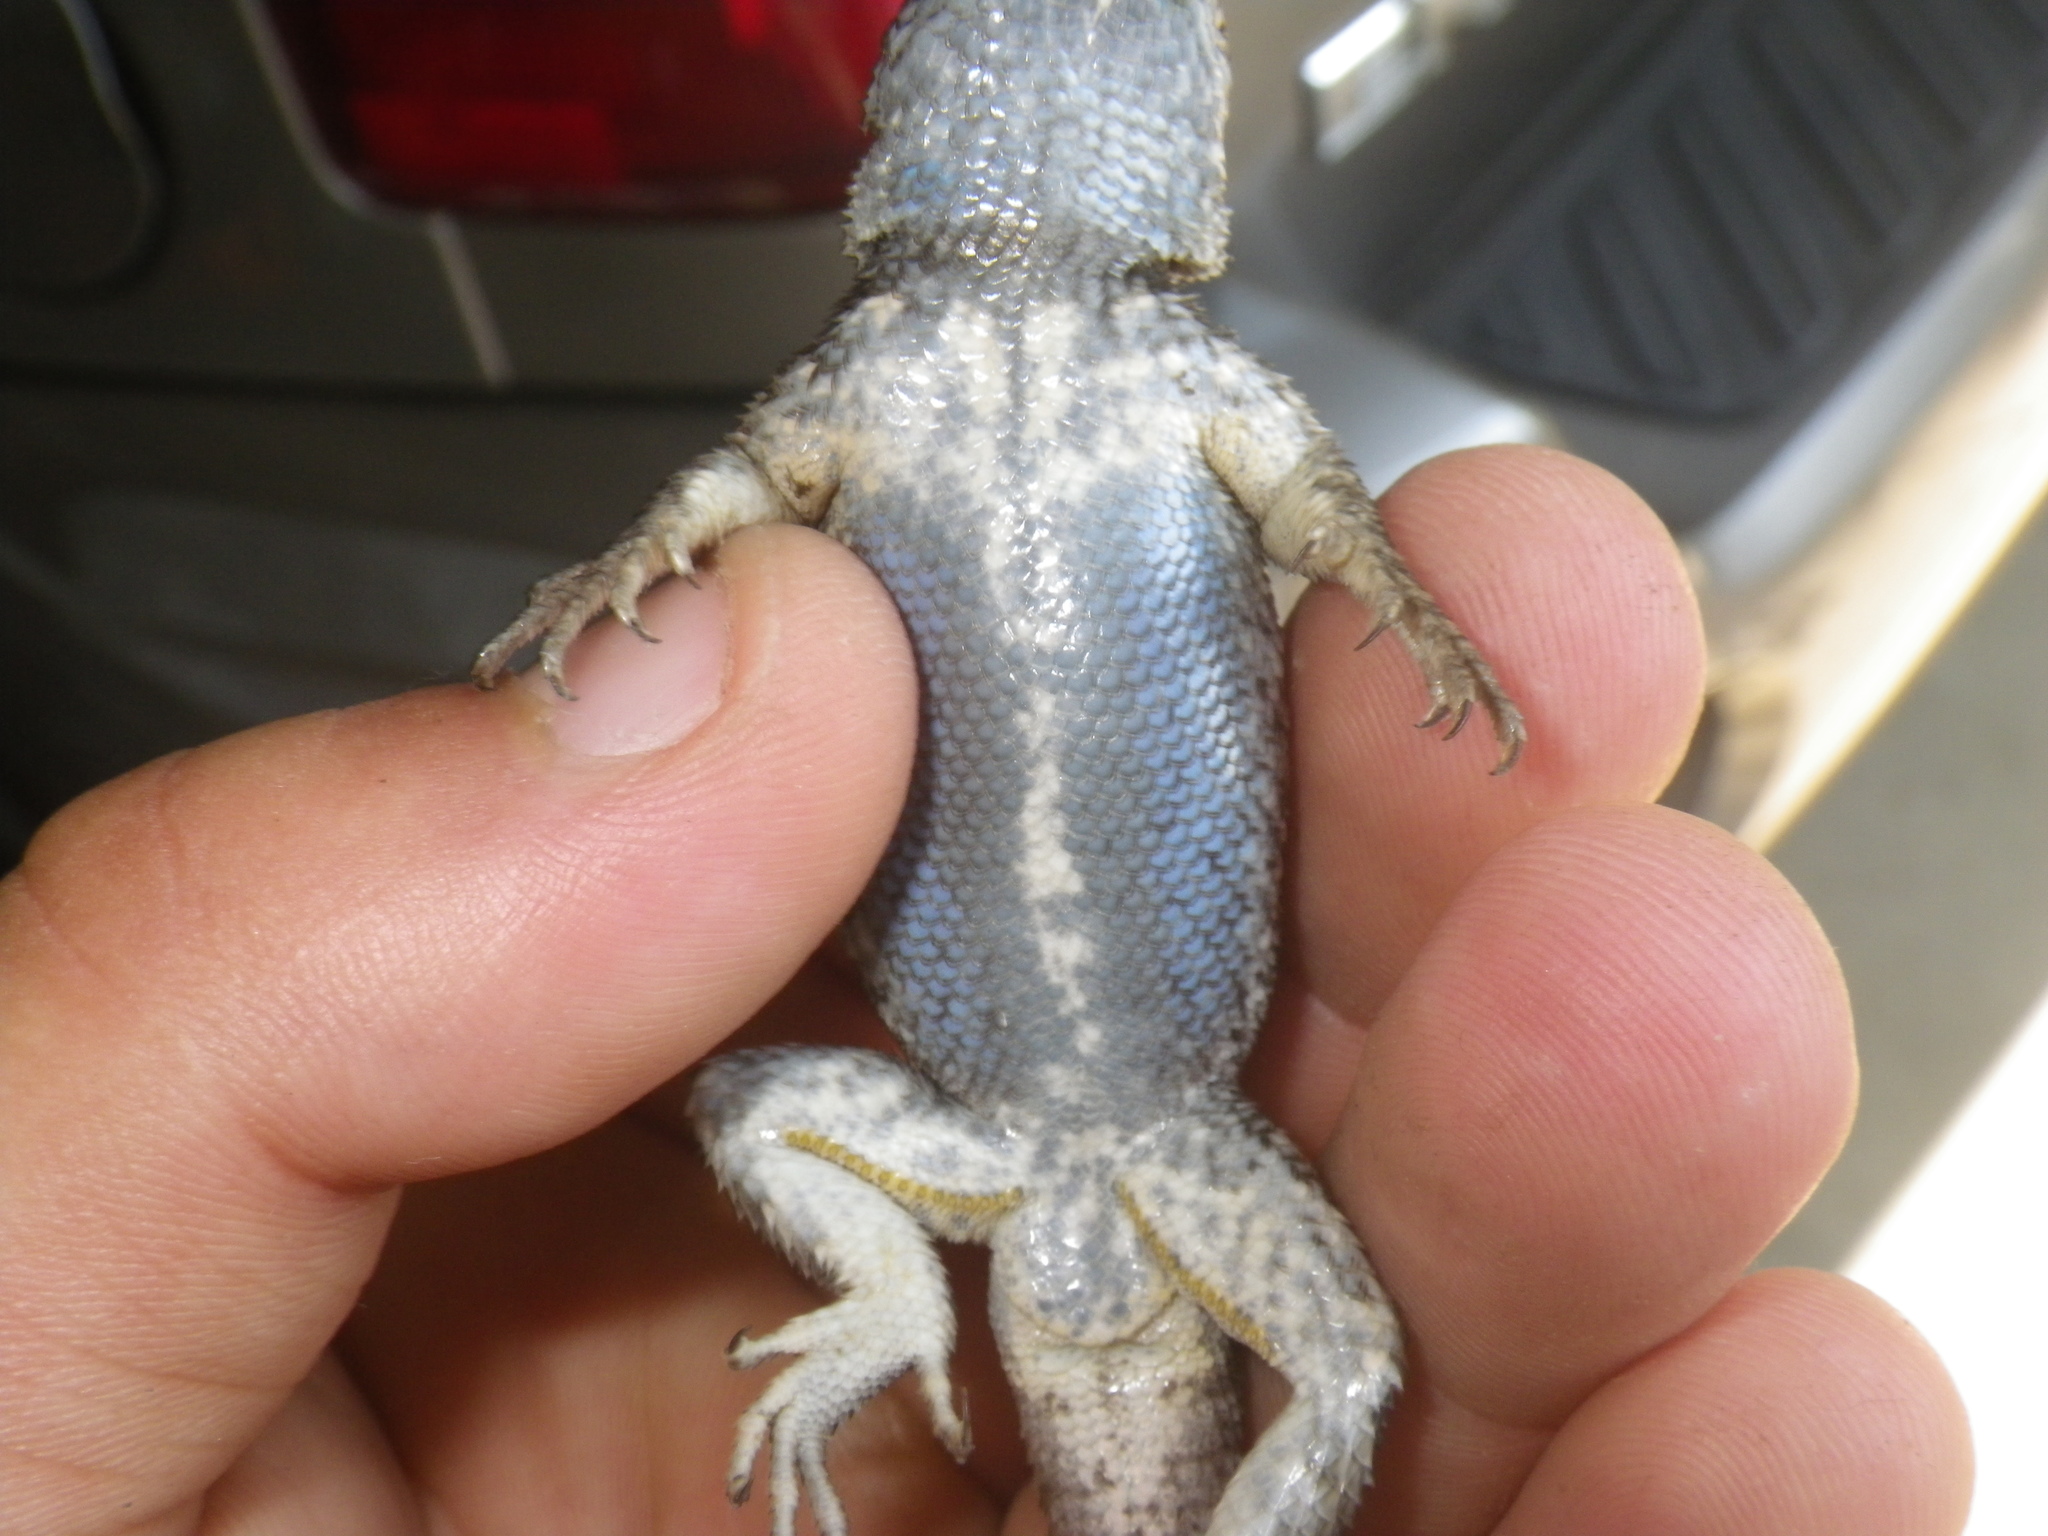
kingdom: Animalia
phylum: Chordata
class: Squamata
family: Phrynosomatidae
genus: Sceloporus
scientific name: Sceloporus occidentalis
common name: Western fence lizard
